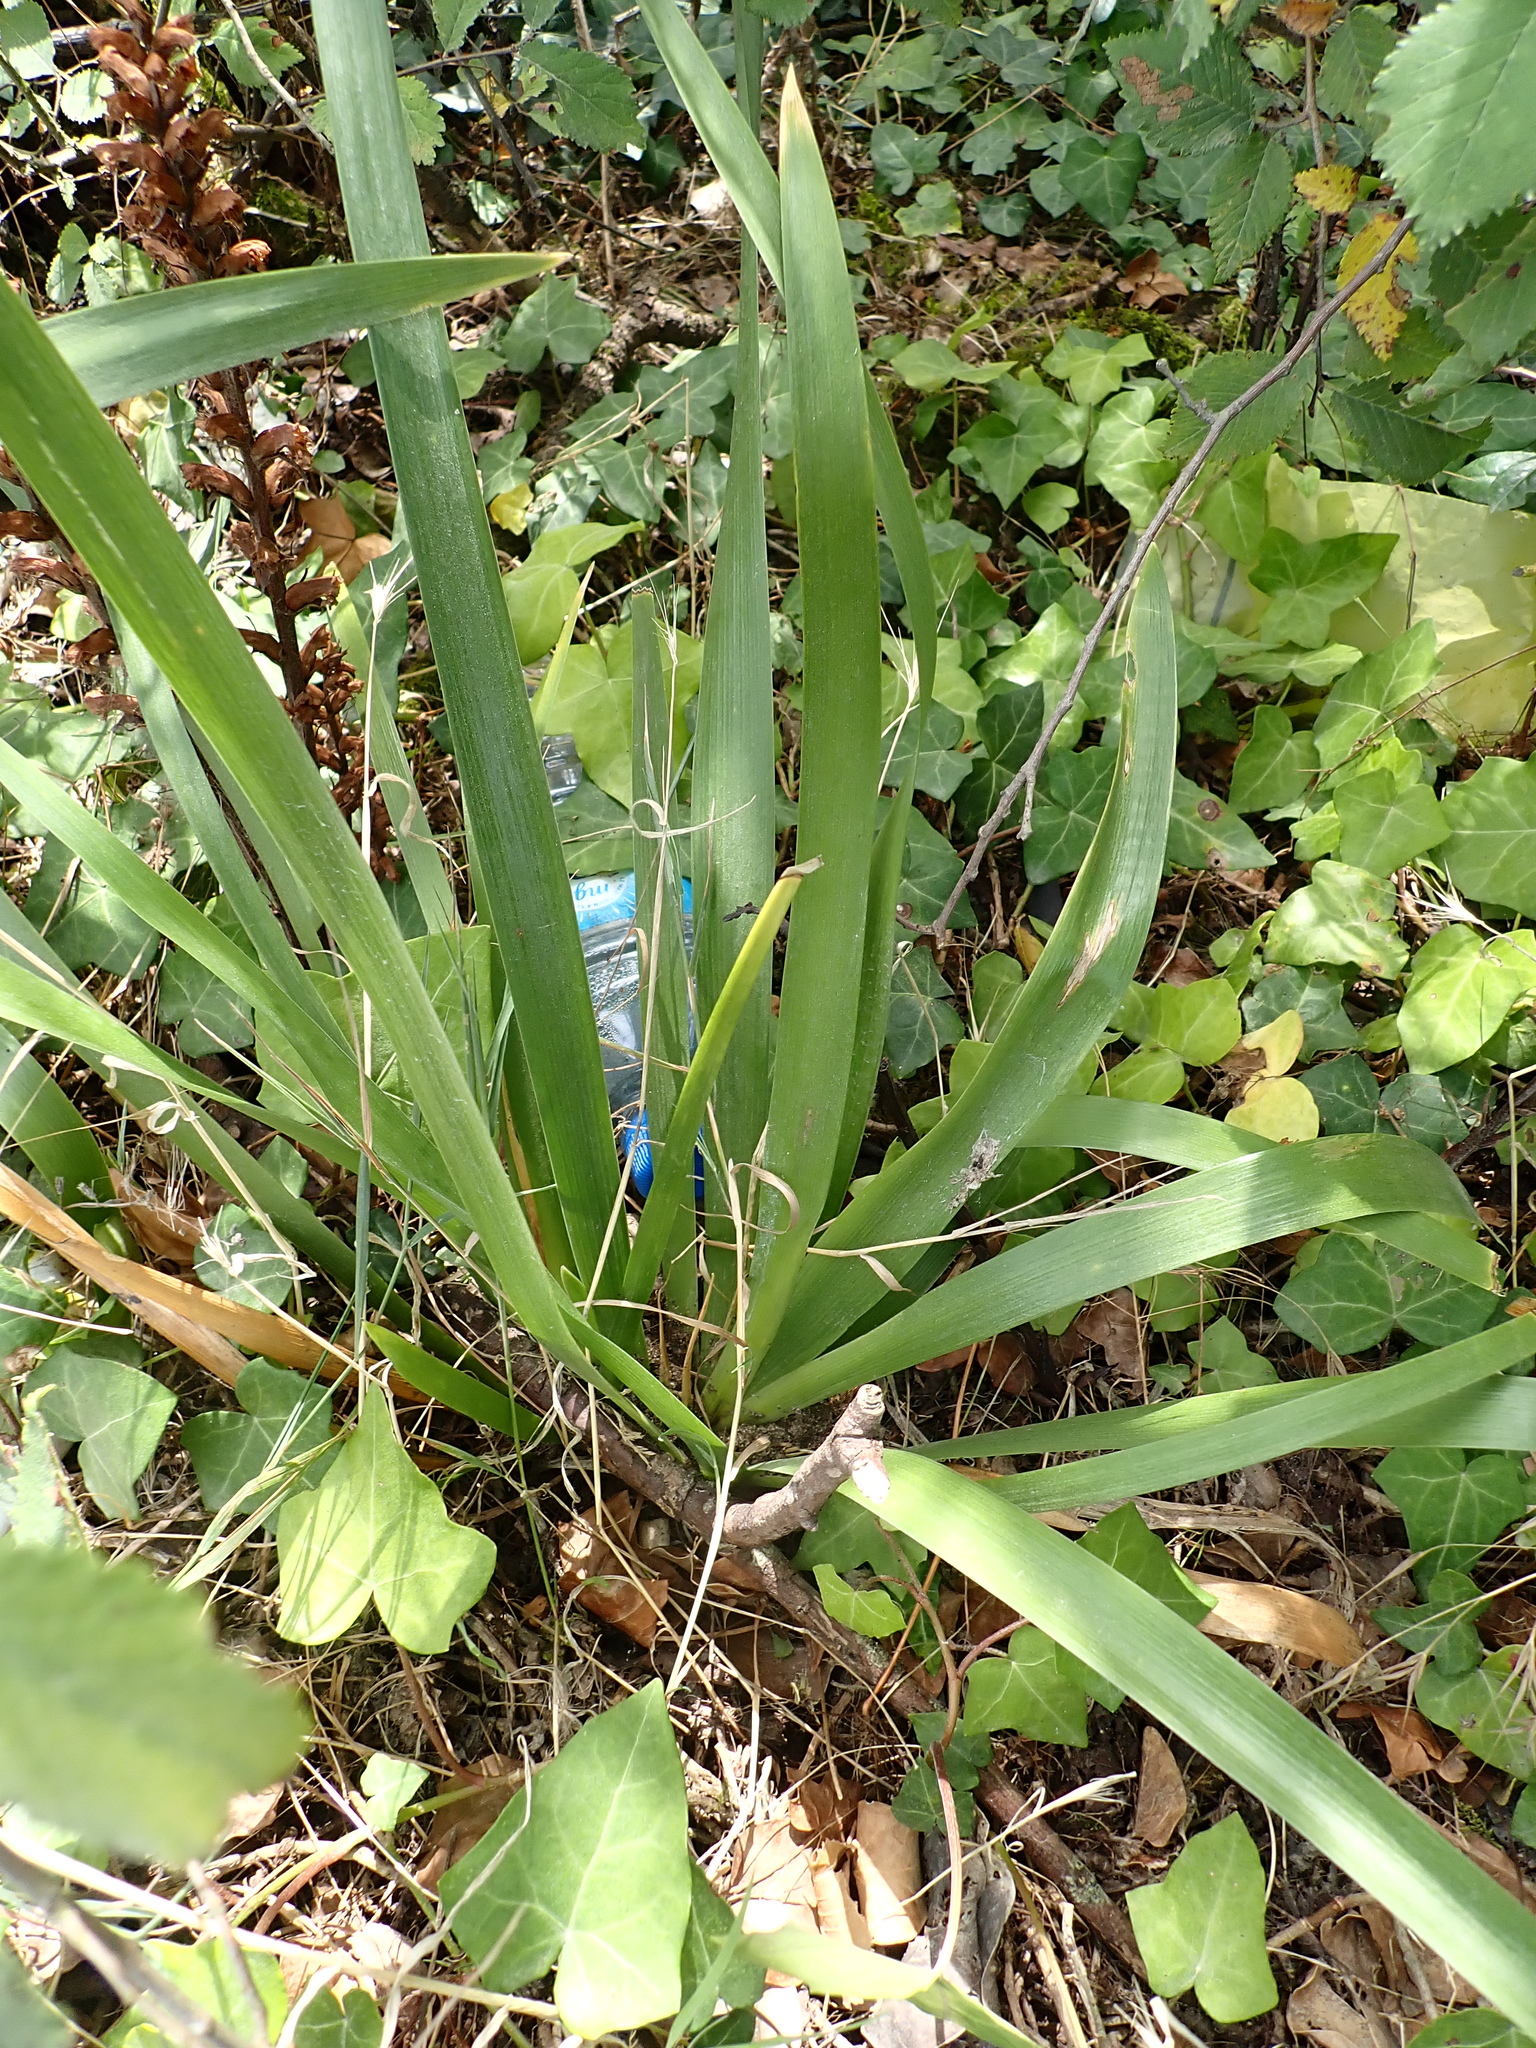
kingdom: Plantae
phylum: Tracheophyta
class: Liliopsida
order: Asparagales
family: Iridaceae
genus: Iris
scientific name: Iris foetidissima
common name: Stinking iris
